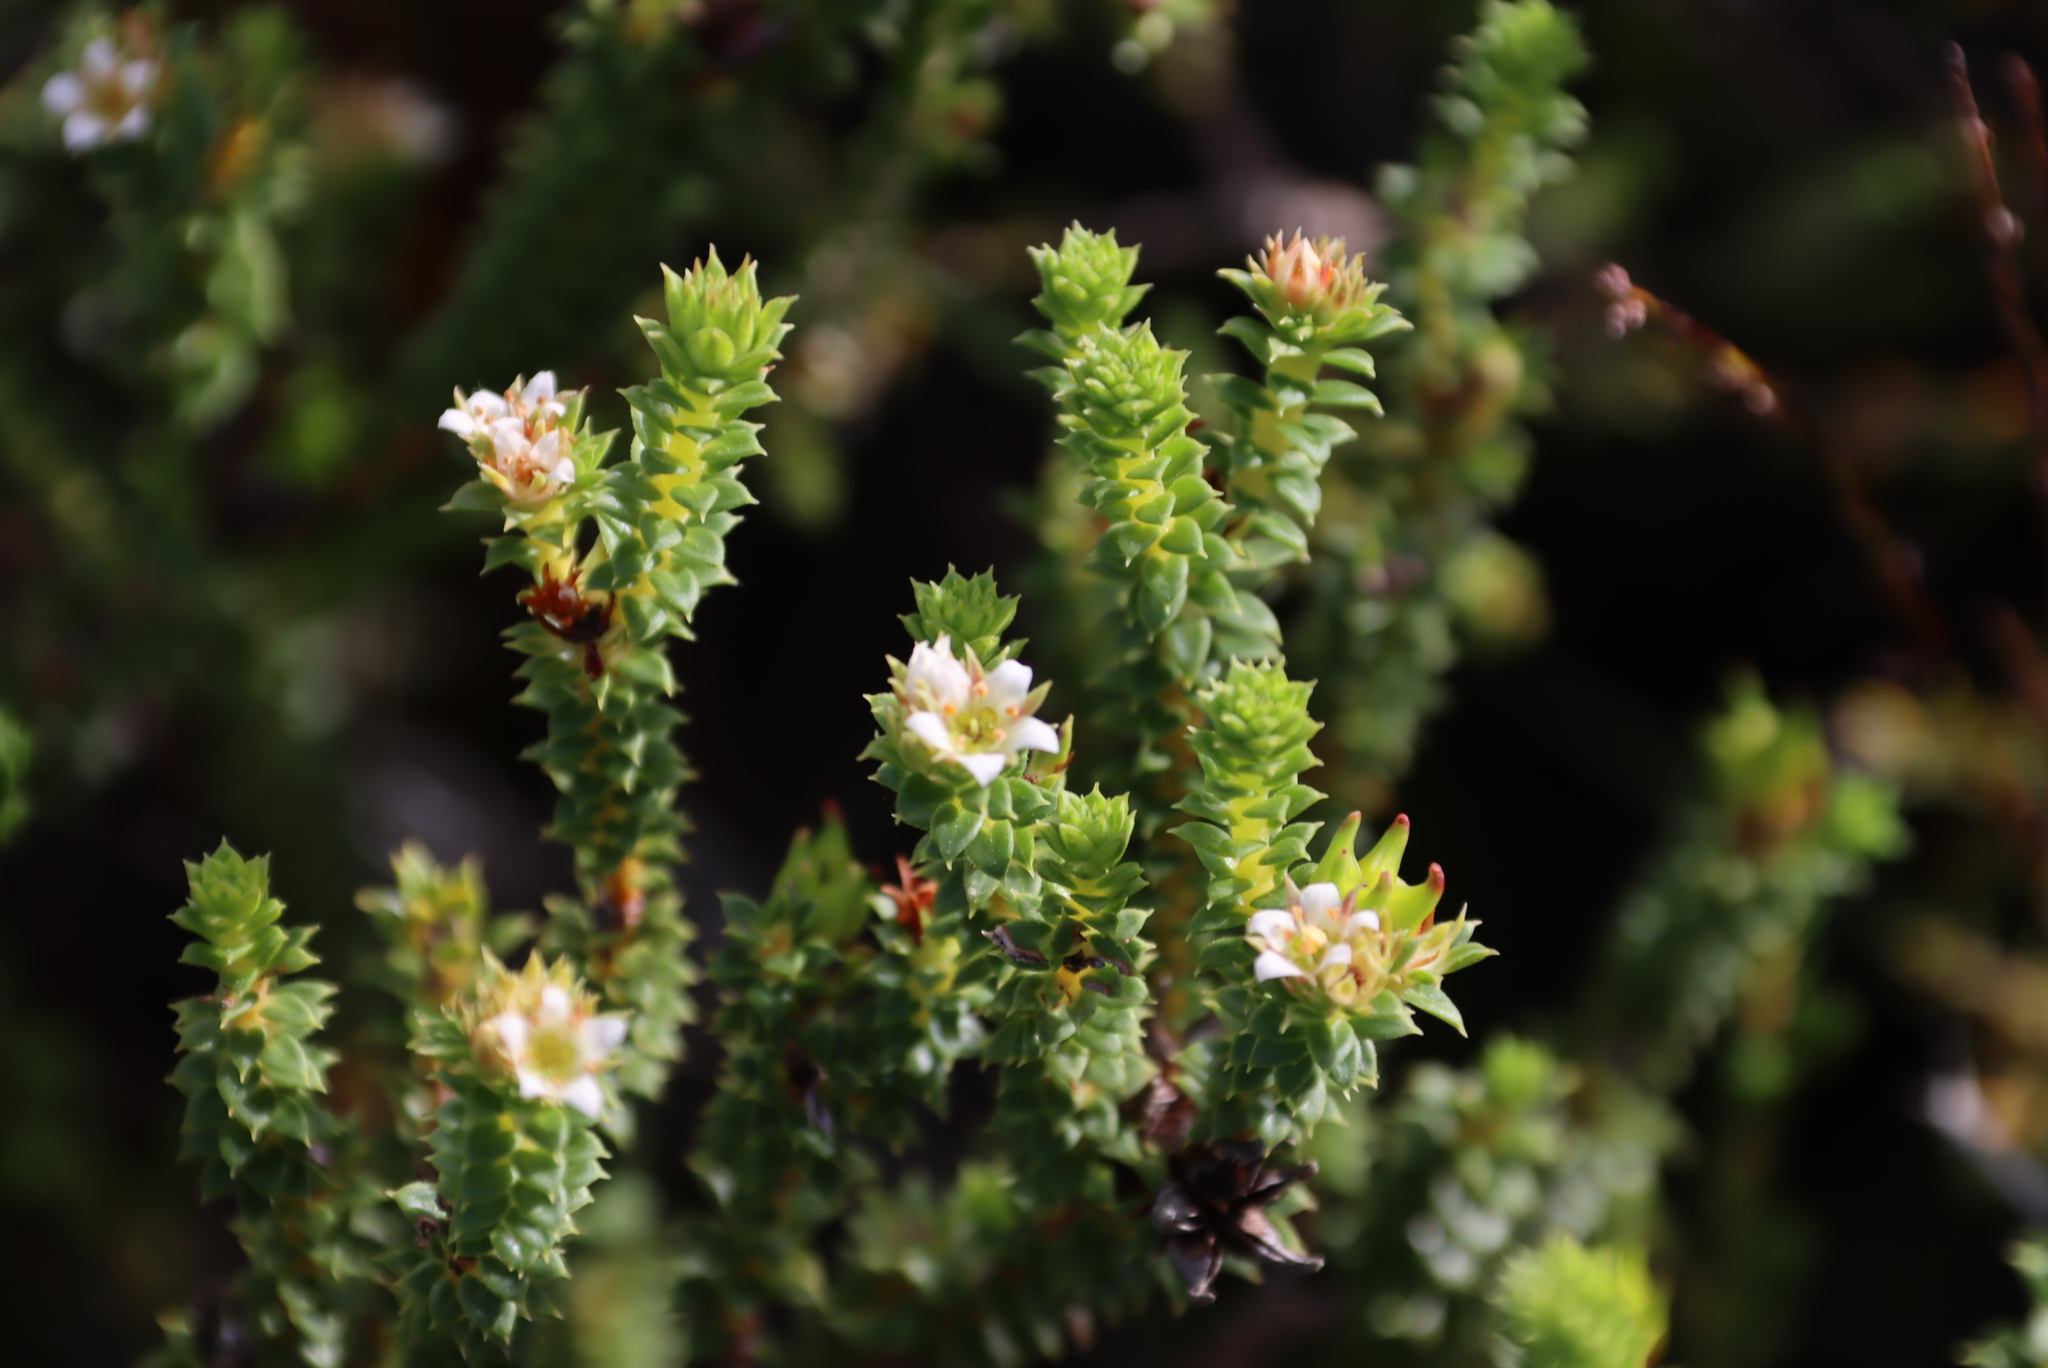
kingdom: Plantae
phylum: Tracheophyta
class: Magnoliopsida
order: Sapindales
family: Rutaceae
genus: Diosma
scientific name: Diosma echinulata
